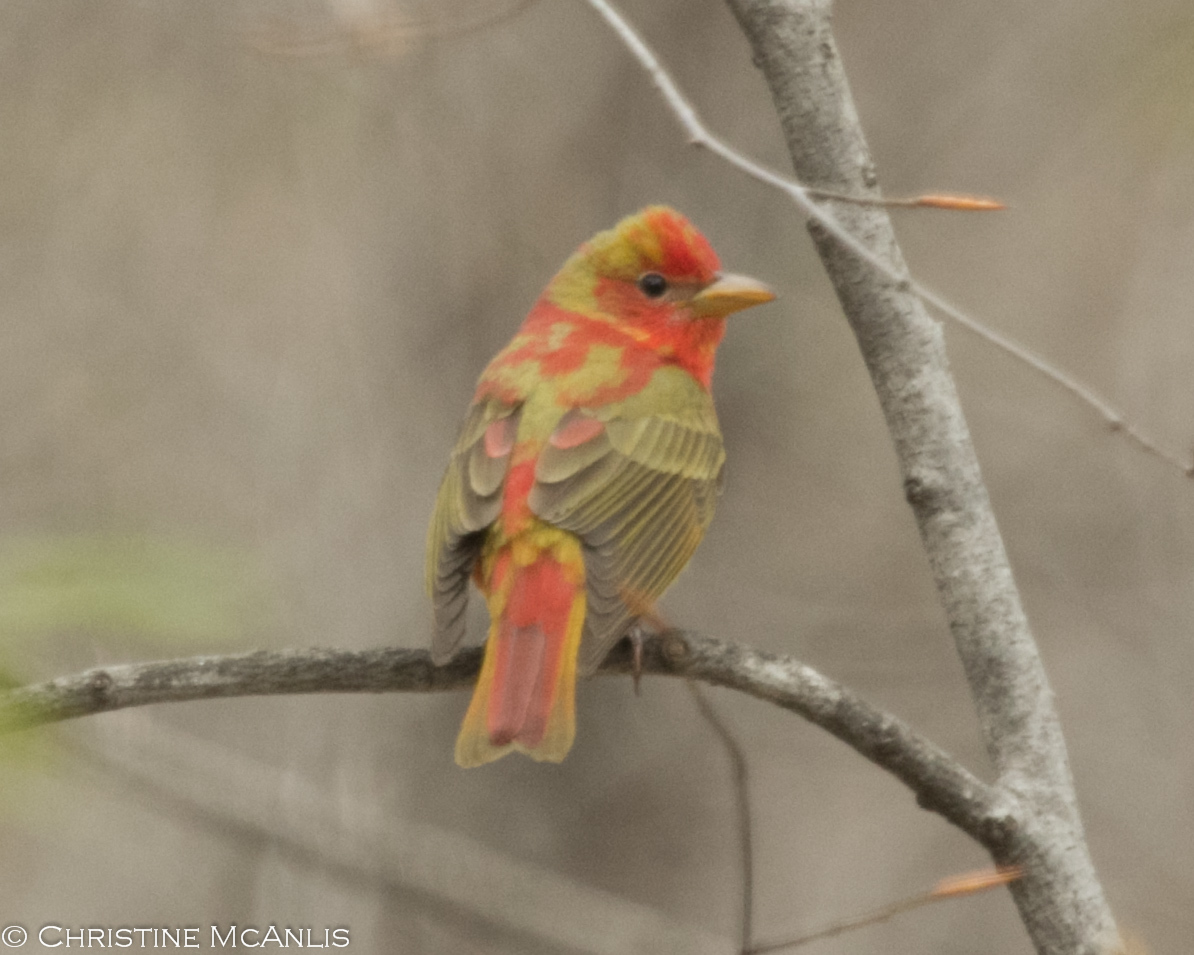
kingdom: Animalia
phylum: Chordata
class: Aves
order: Passeriformes
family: Cardinalidae
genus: Piranga
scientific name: Piranga rubra
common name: Summer tanager
